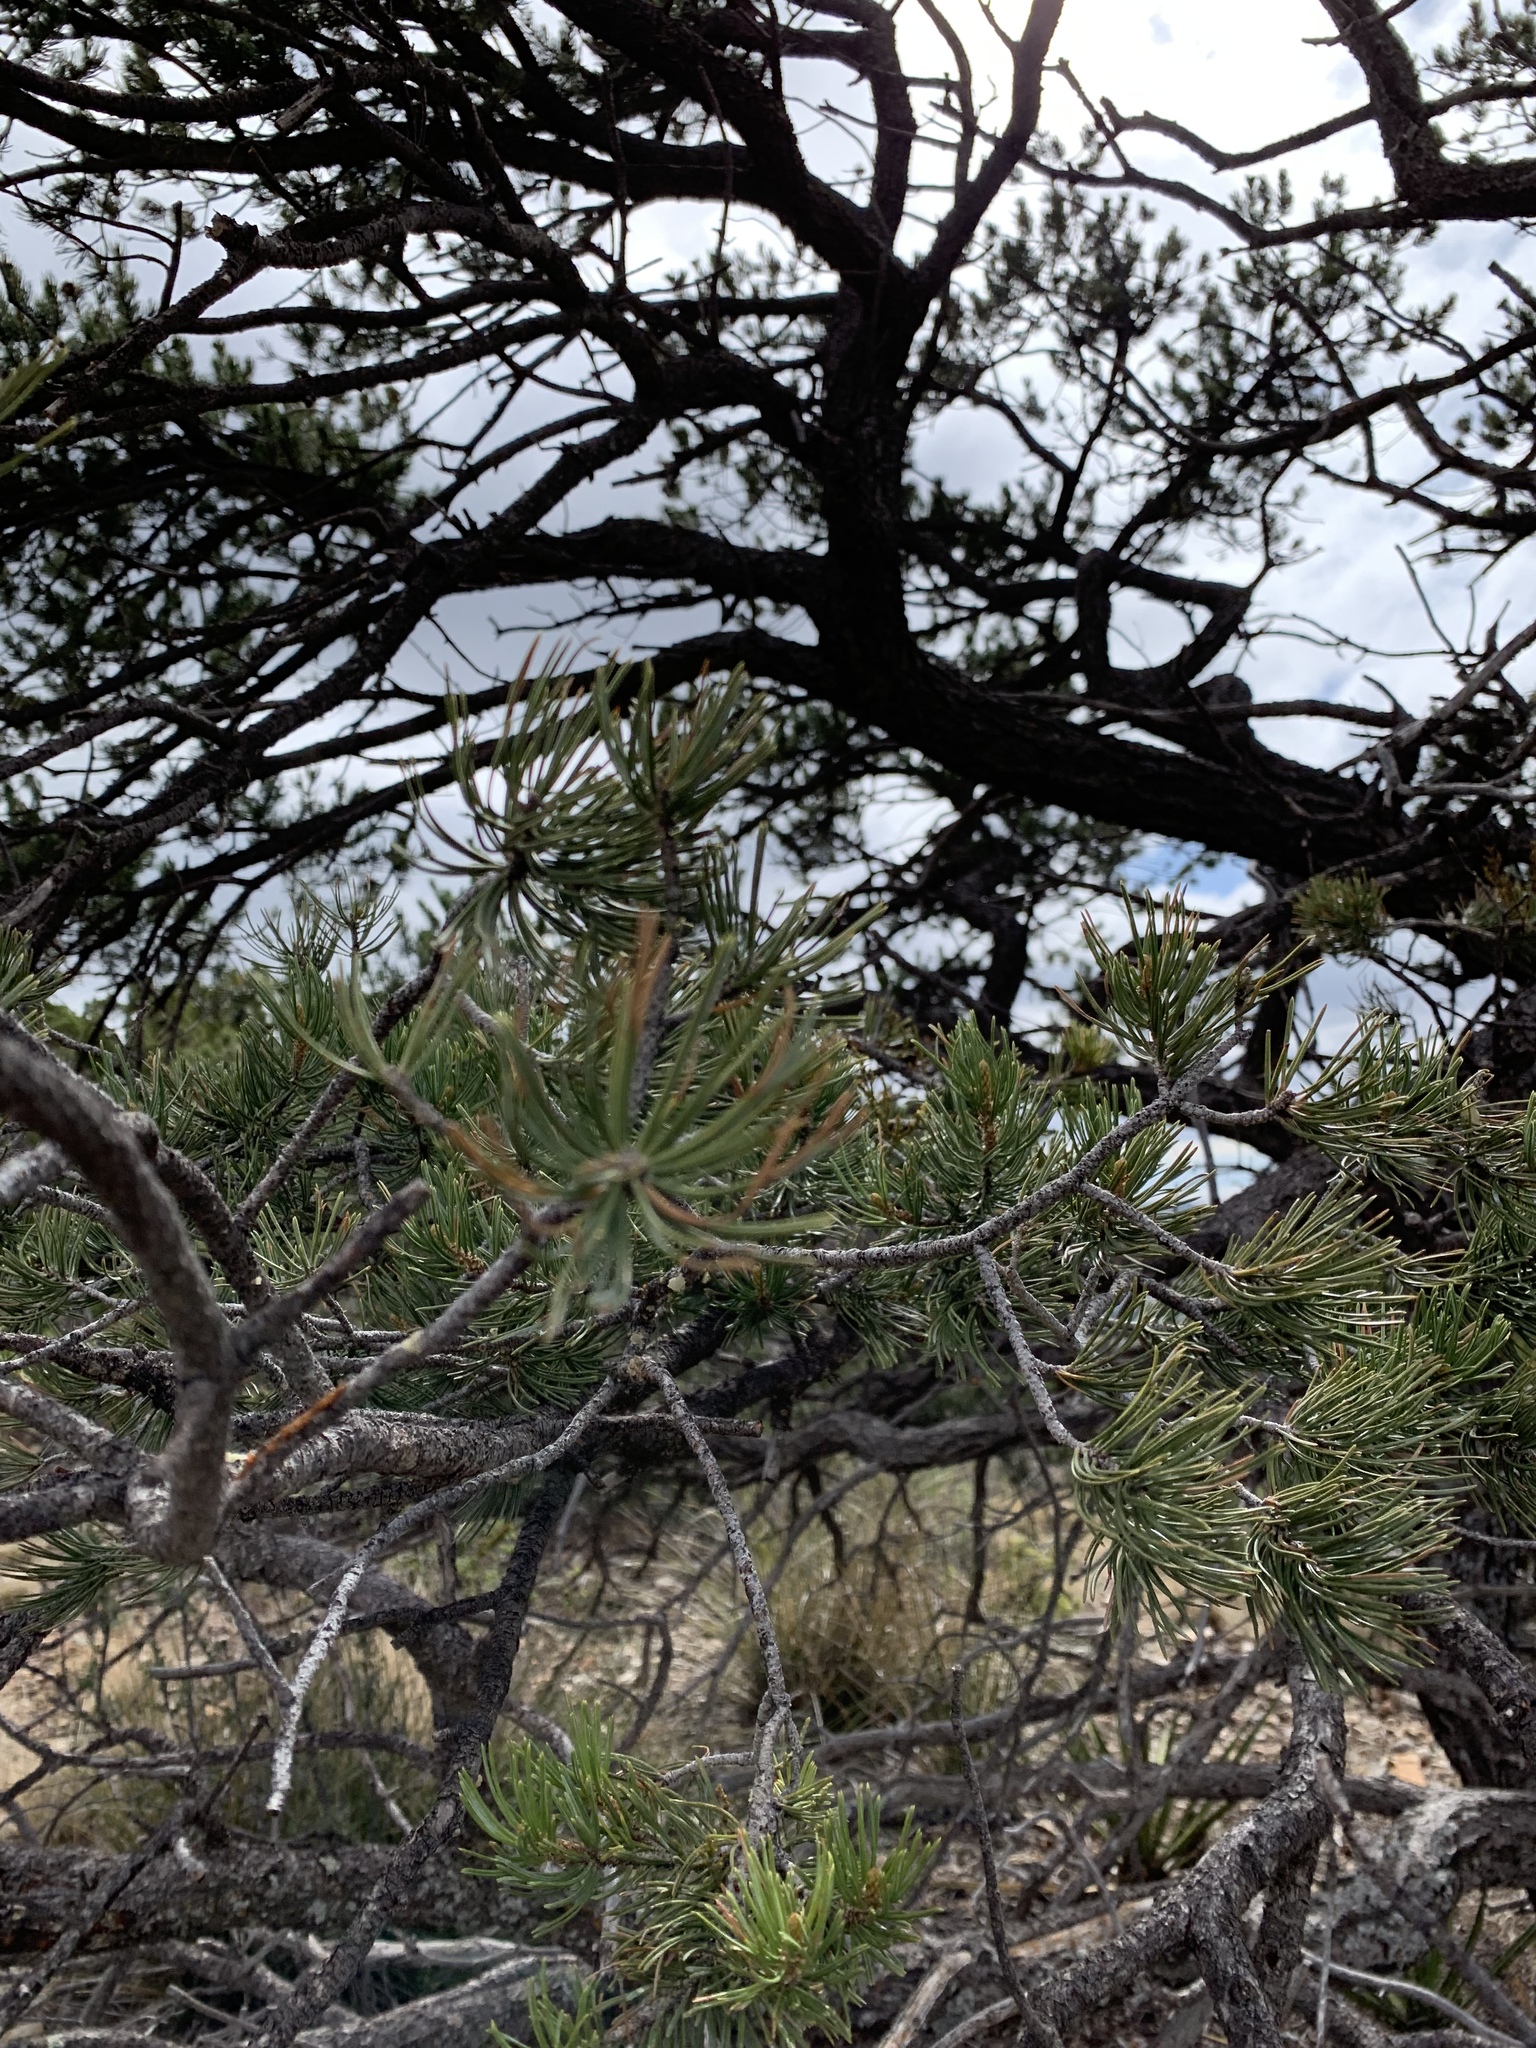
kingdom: Plantae
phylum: Tracheophyta
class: Pinopsida
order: Pinales
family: Pinaceae
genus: Pinus
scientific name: Pinus edulis
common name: Colorado pinyon
